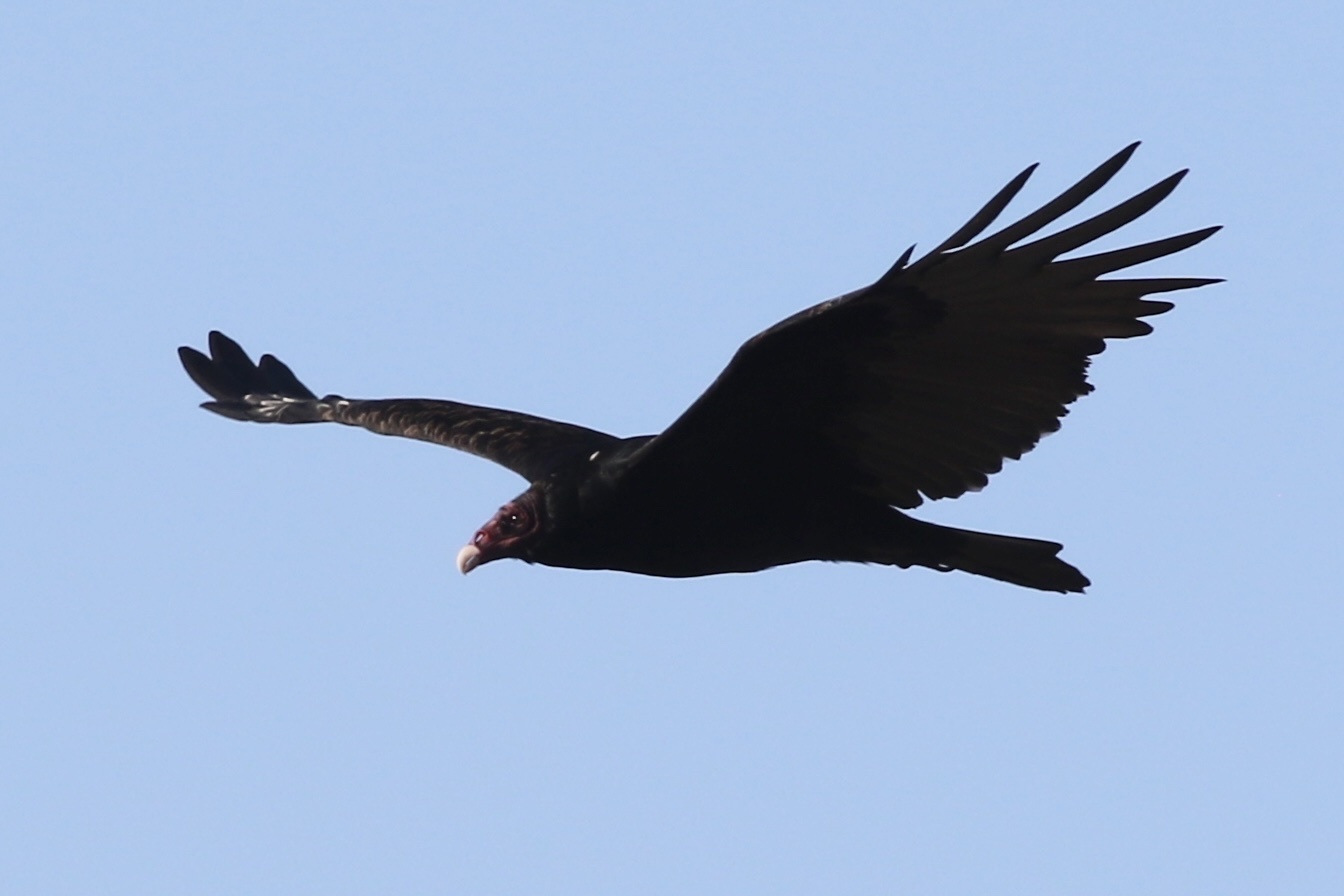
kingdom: Animalia
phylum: Chordata
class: Aves
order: Accipitriformes
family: Cathartidae
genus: Cathartes
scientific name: Cathartes aura
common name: Turkey vulture
